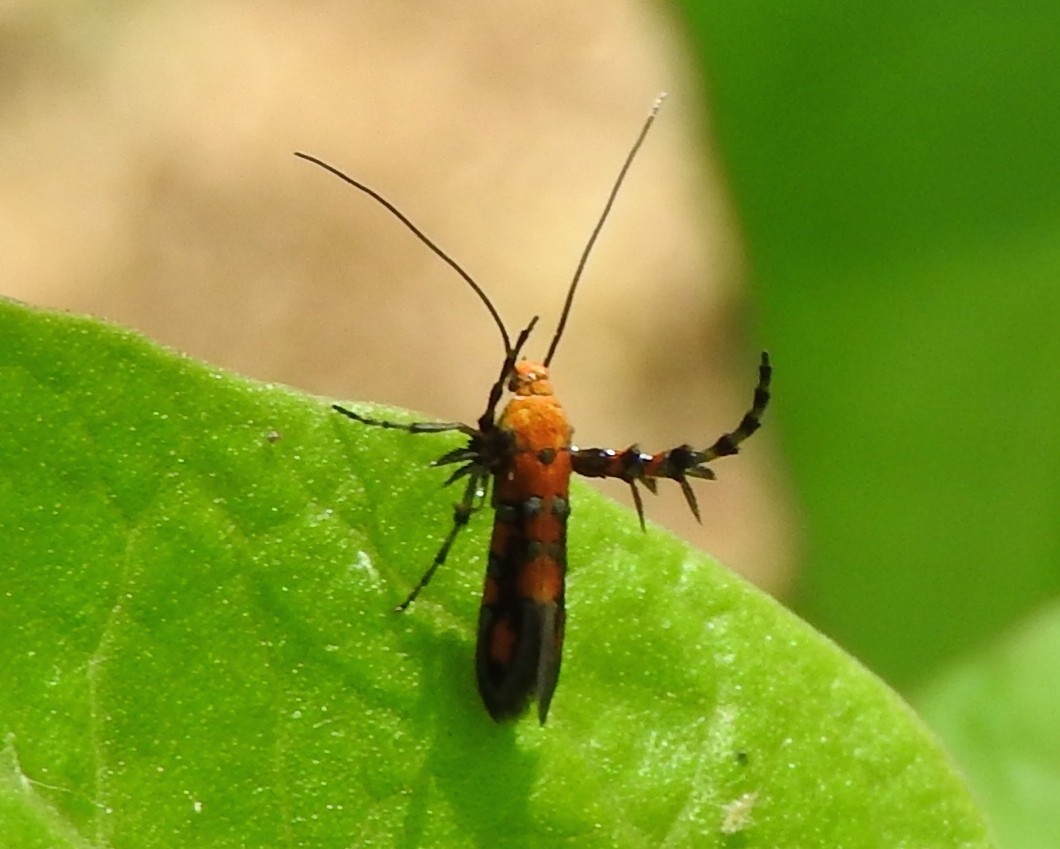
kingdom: Animalia
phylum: Arthropoda
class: Insecta
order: Lepidoptera
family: Heliodinidae
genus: Heliodines
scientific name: Heliodines
